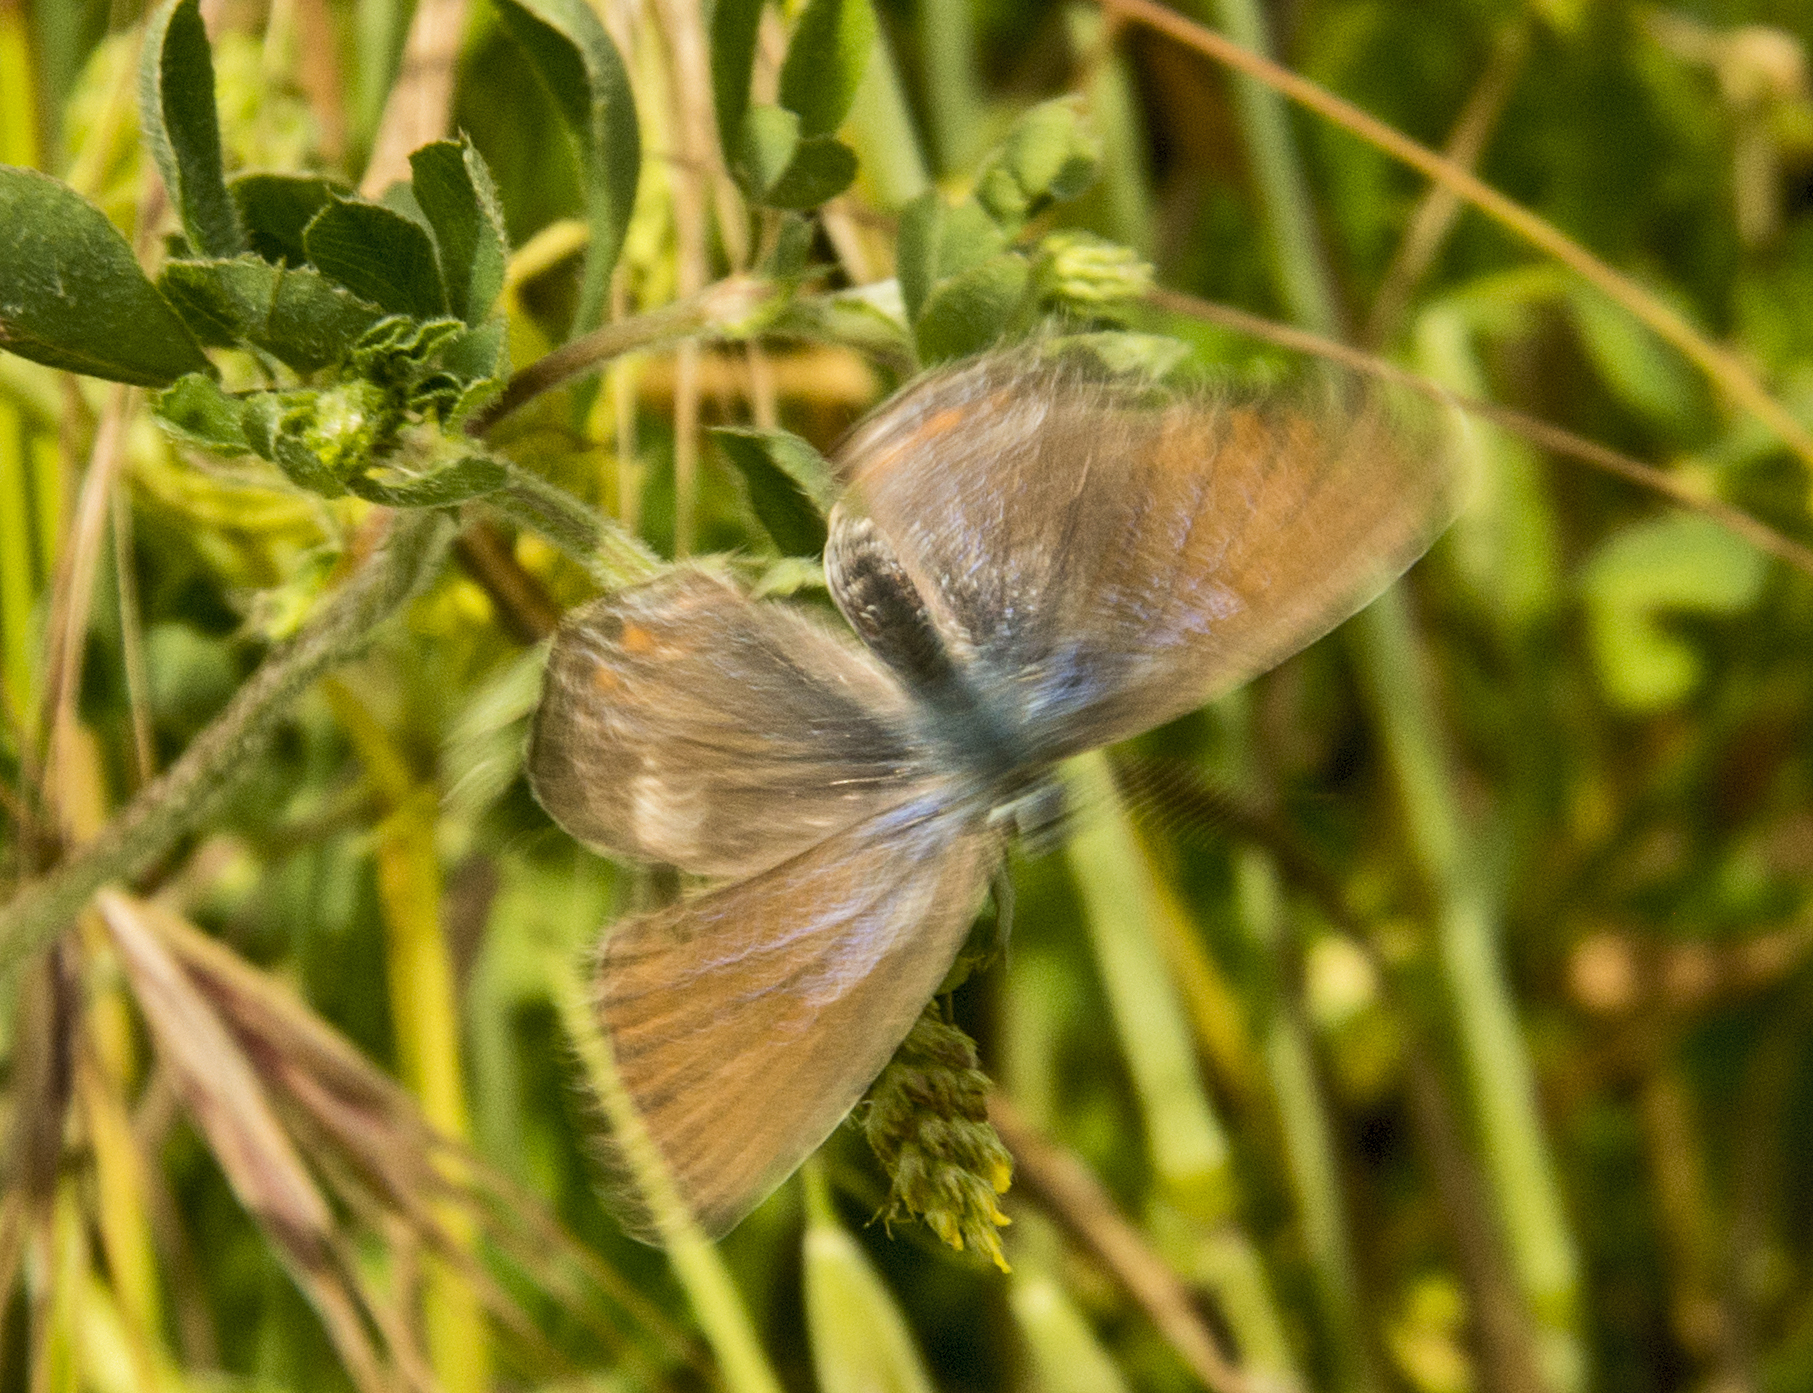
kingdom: Animalia
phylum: Arthropoda
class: Insecta
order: Lepidoptera
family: Lycaenidae
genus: Polyommatus
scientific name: Polyommatus icarus
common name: Common blue
